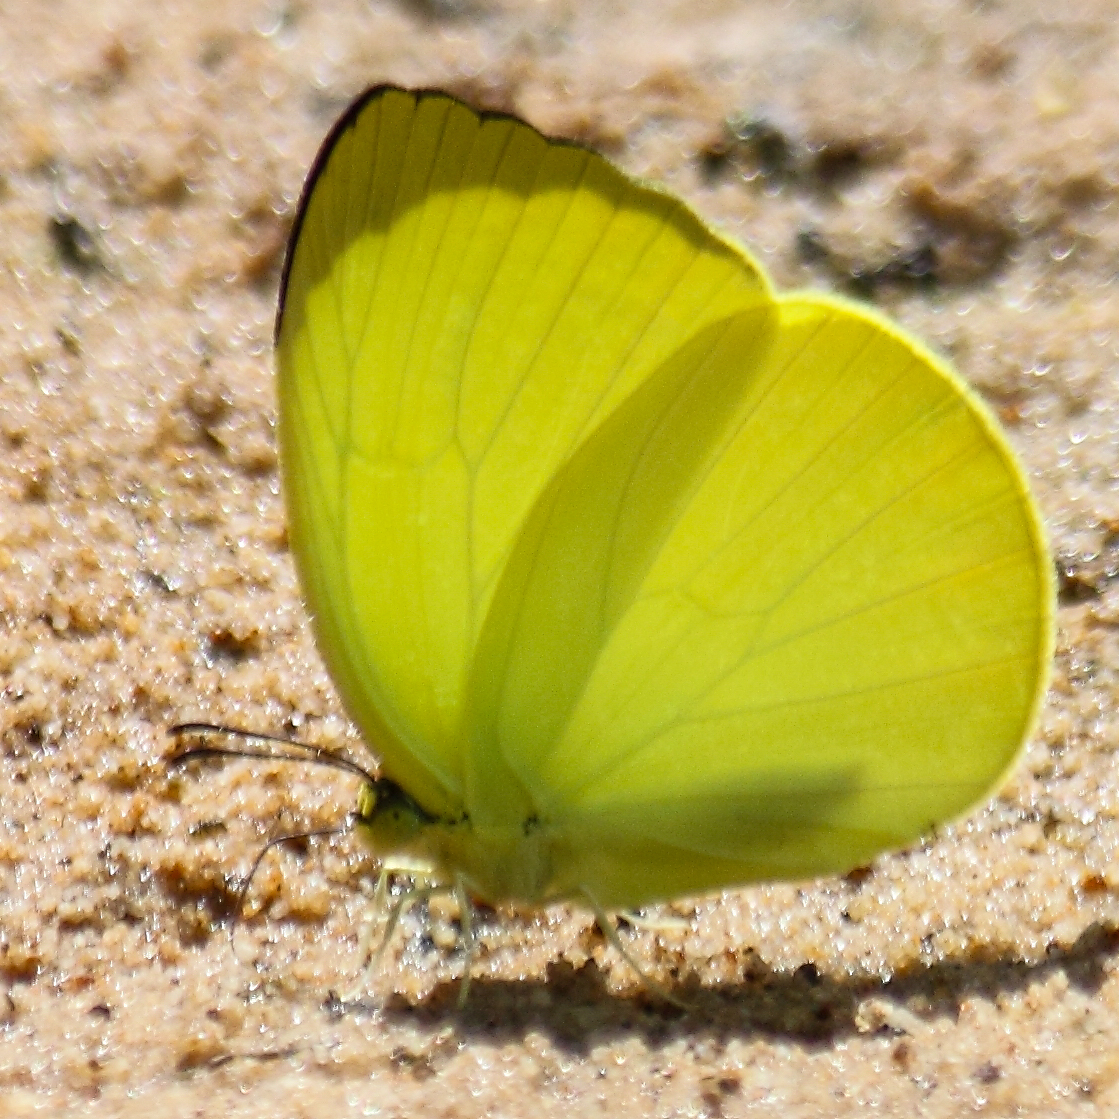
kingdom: Animalia
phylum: Arthropoda
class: Insecta
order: Lepidoptera
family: Pieridae
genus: Gandaca
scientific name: Gandaca harina
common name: Tree yellow
